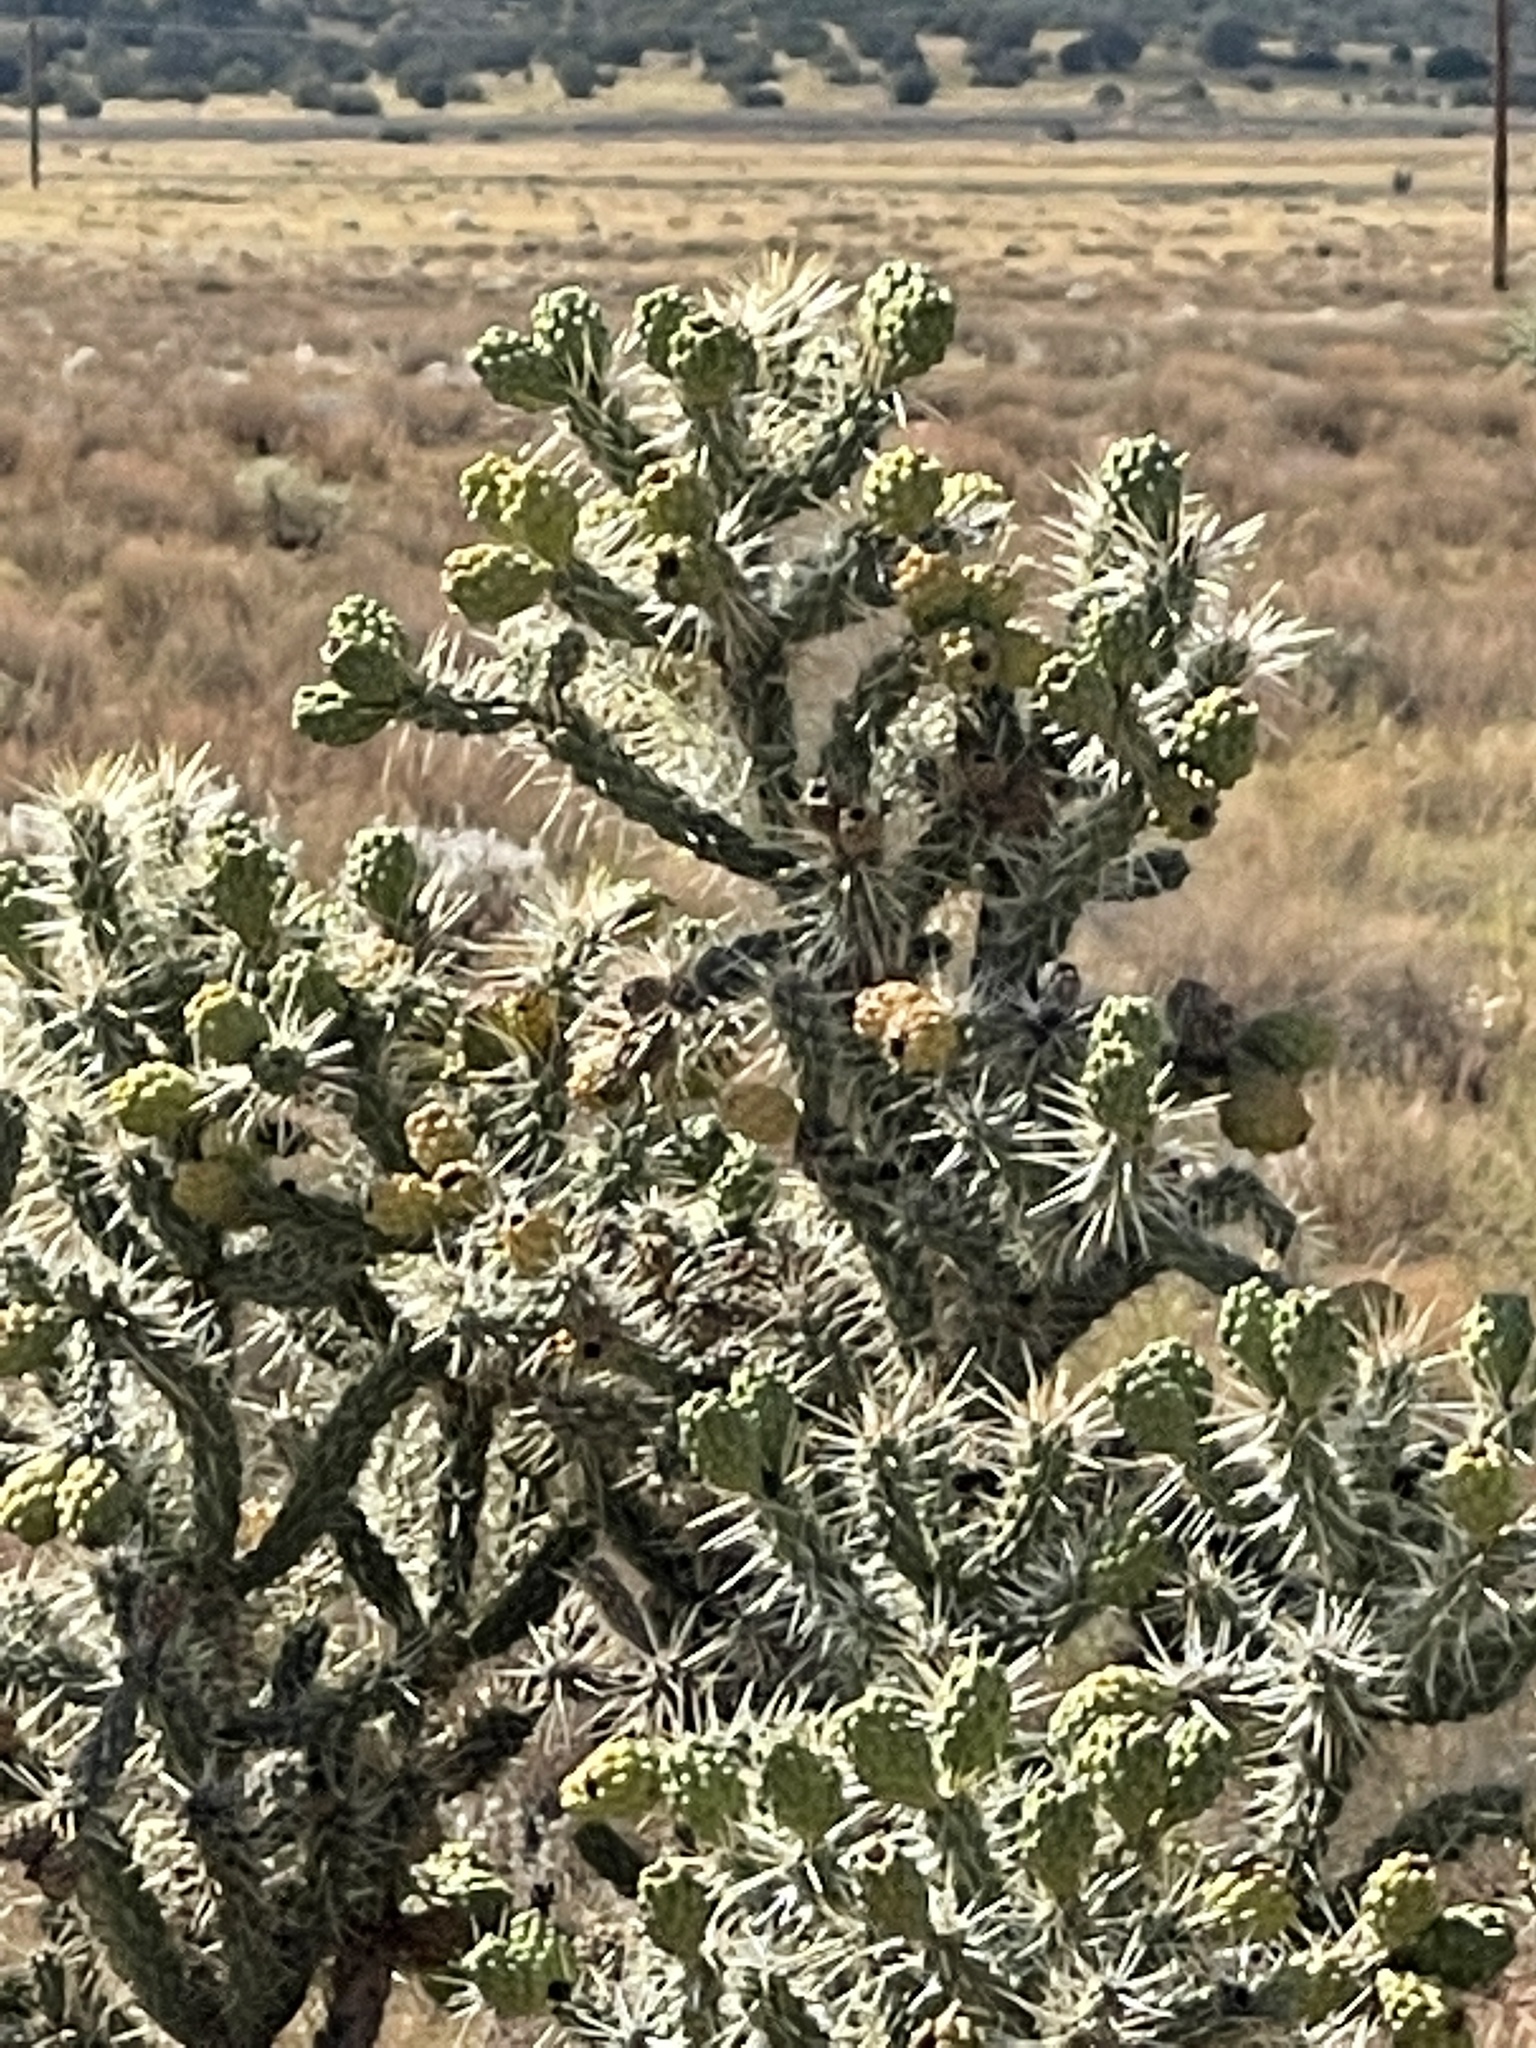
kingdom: Plantae
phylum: Tracheophyta
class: Magnoliopsida
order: Caryophyllales
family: Cactaceae
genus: Cylindropuntia
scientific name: Cylindropuntia whipplei
